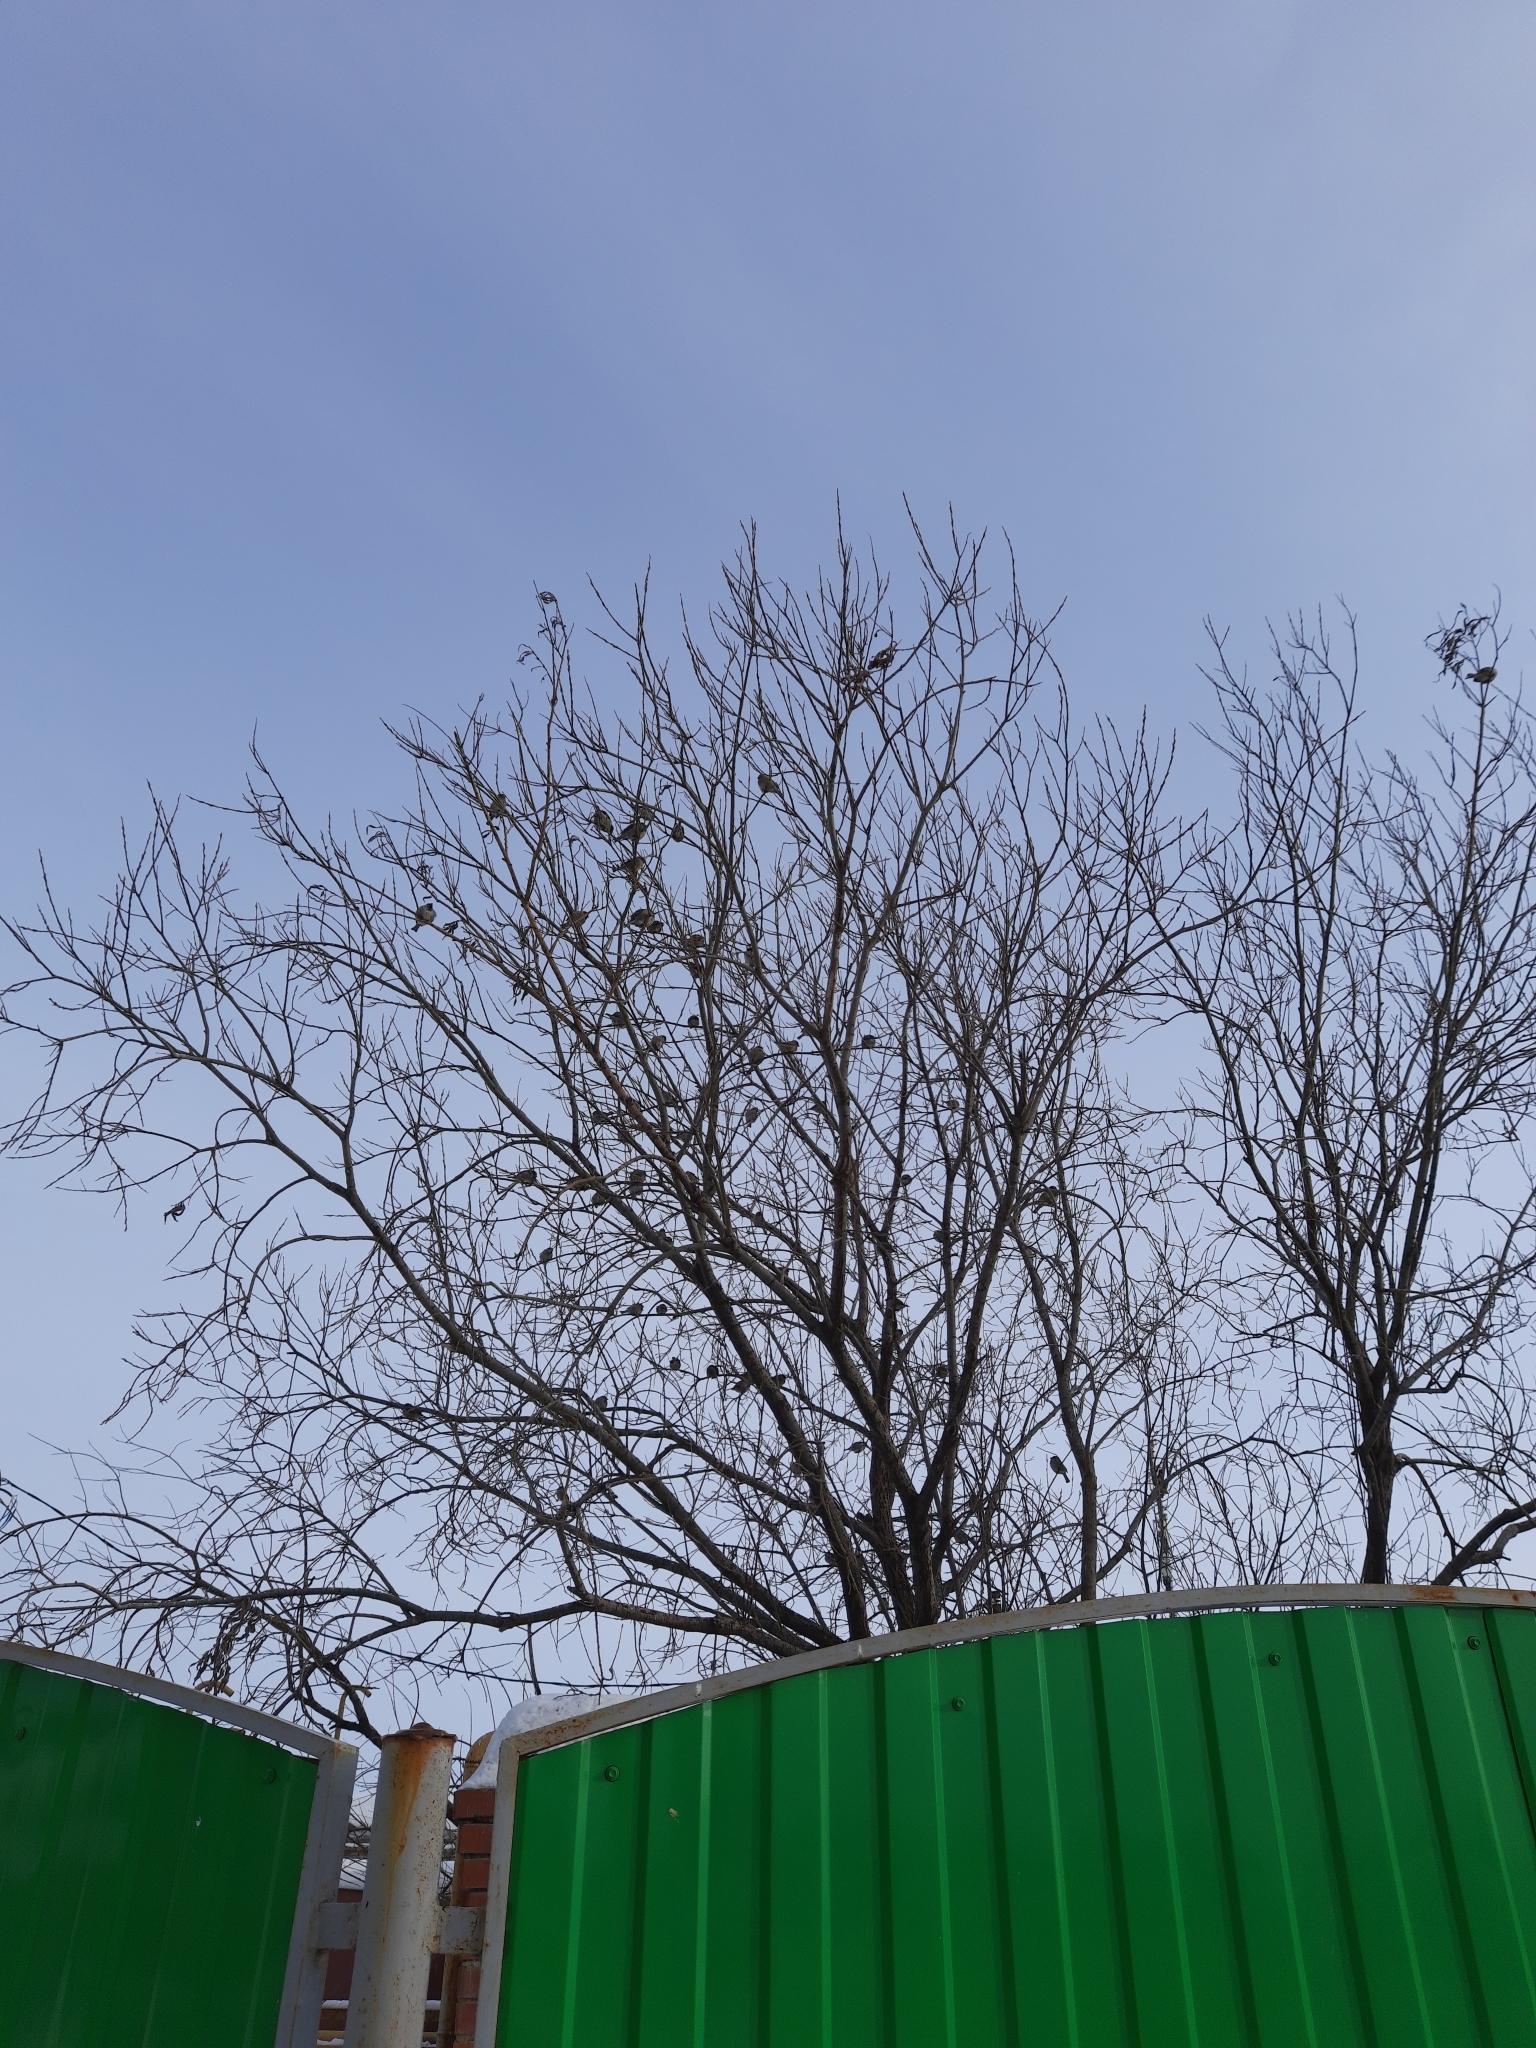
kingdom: Animalia
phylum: Chordata
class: Aves
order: Passeriformes
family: Passeridae
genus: Passer
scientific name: Passer domesticus
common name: House sparrow
